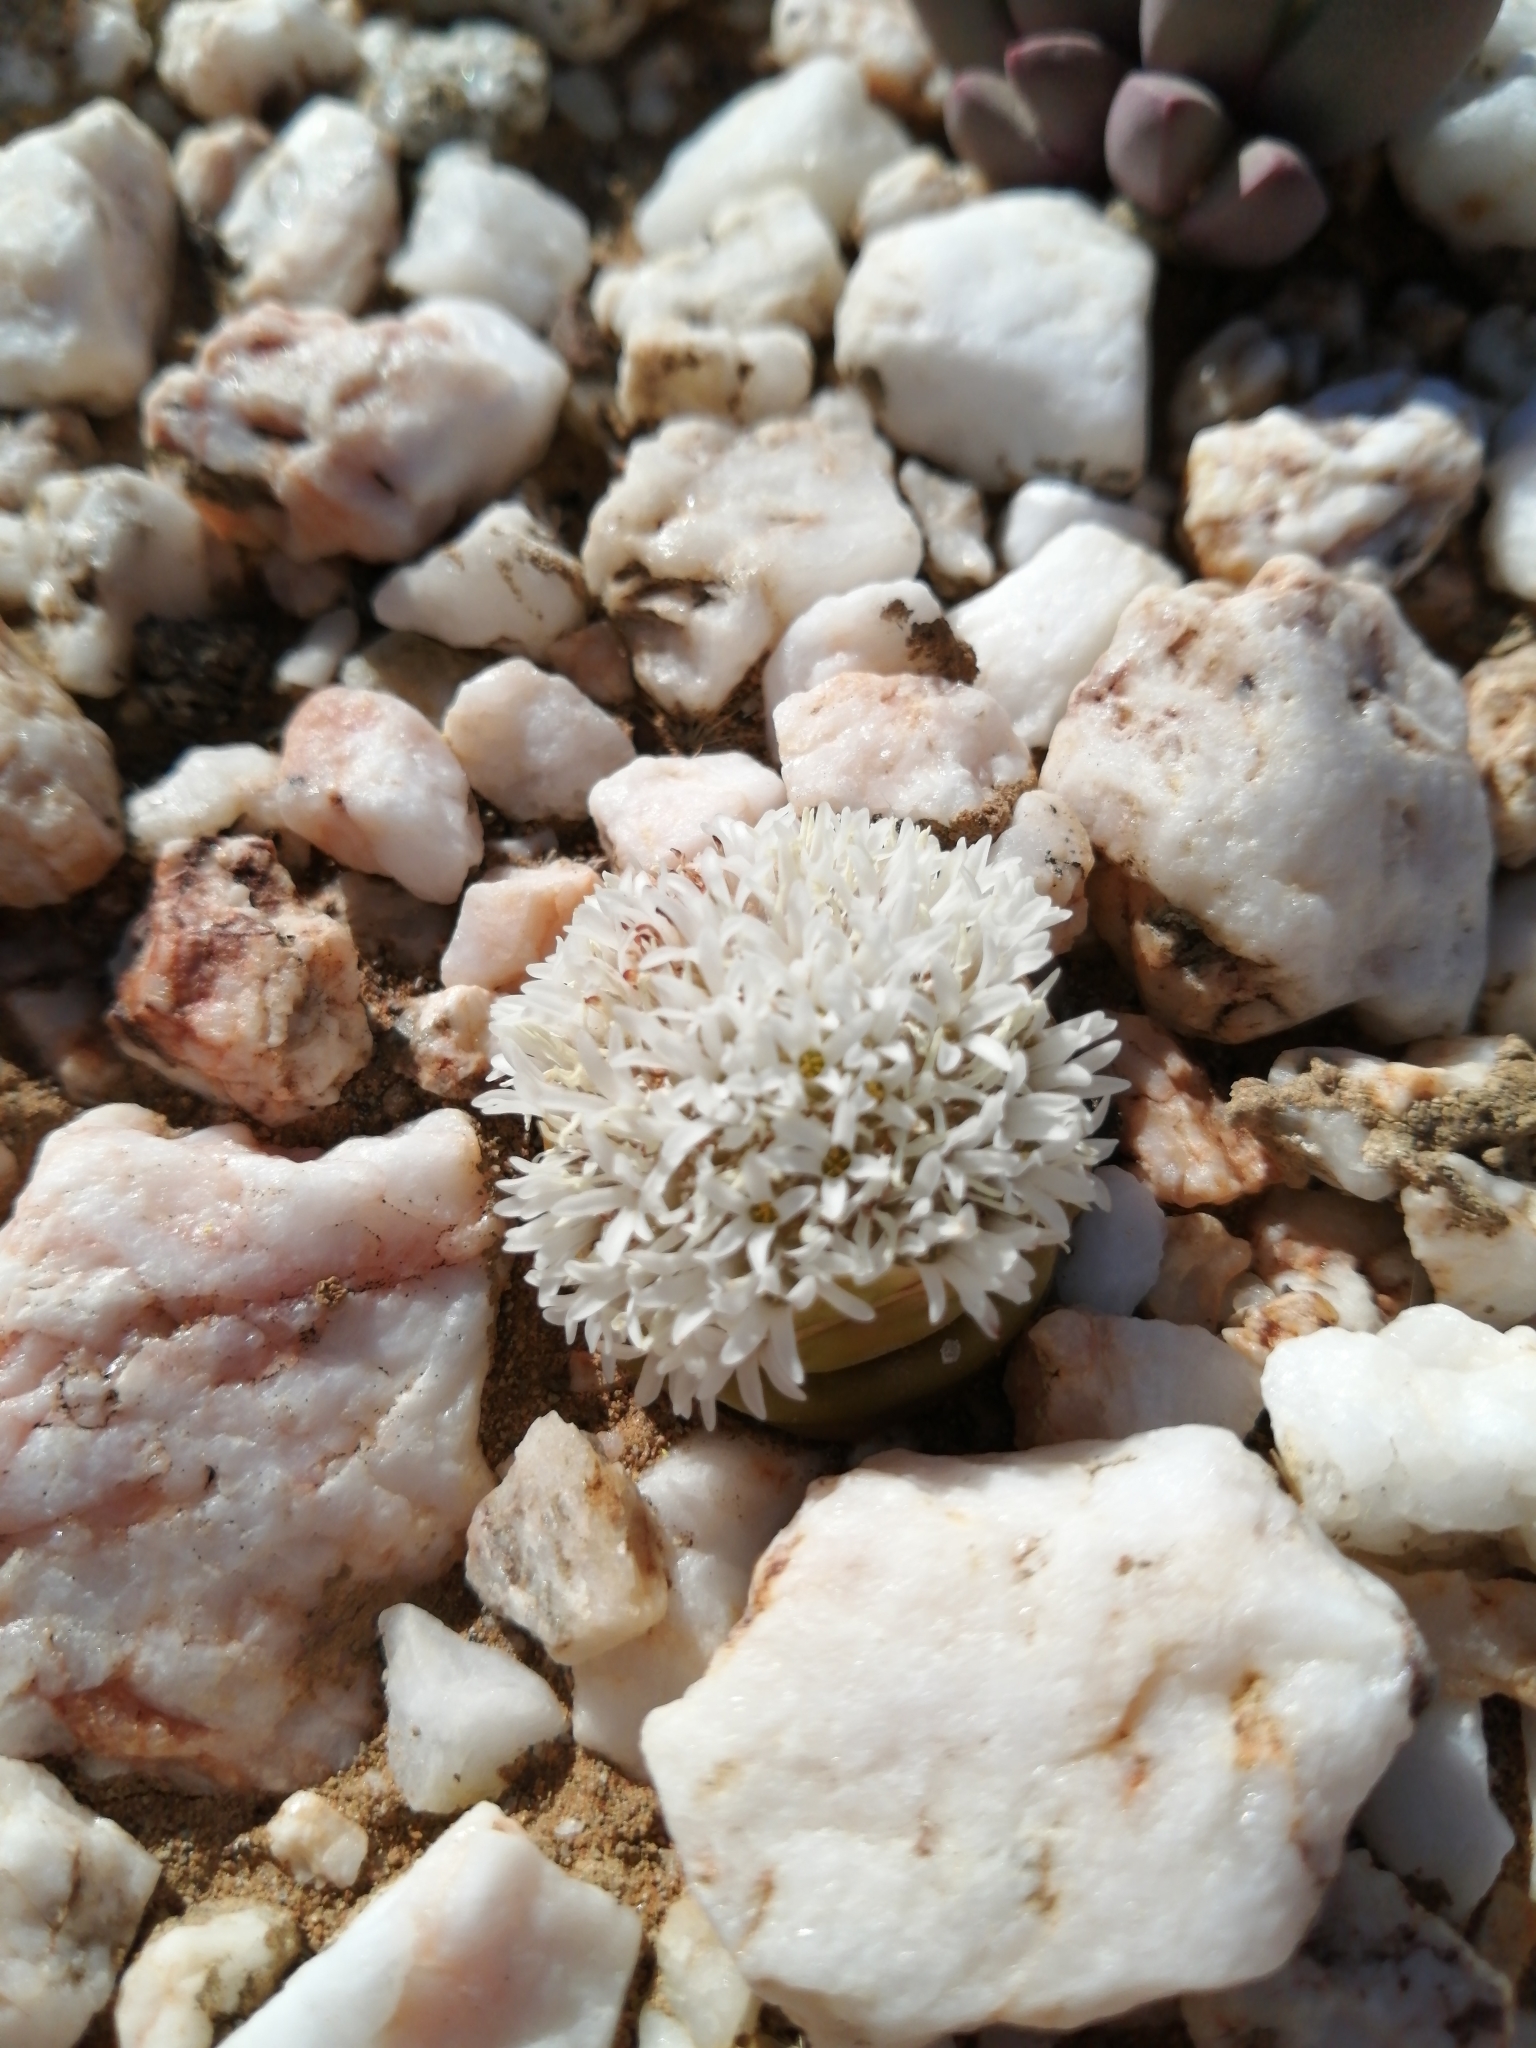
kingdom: Plantae
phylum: Tracheophyta
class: Magnoliopsida
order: Saxifragales
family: Crassulaceae
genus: Crassula
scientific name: Crassula columnaris
